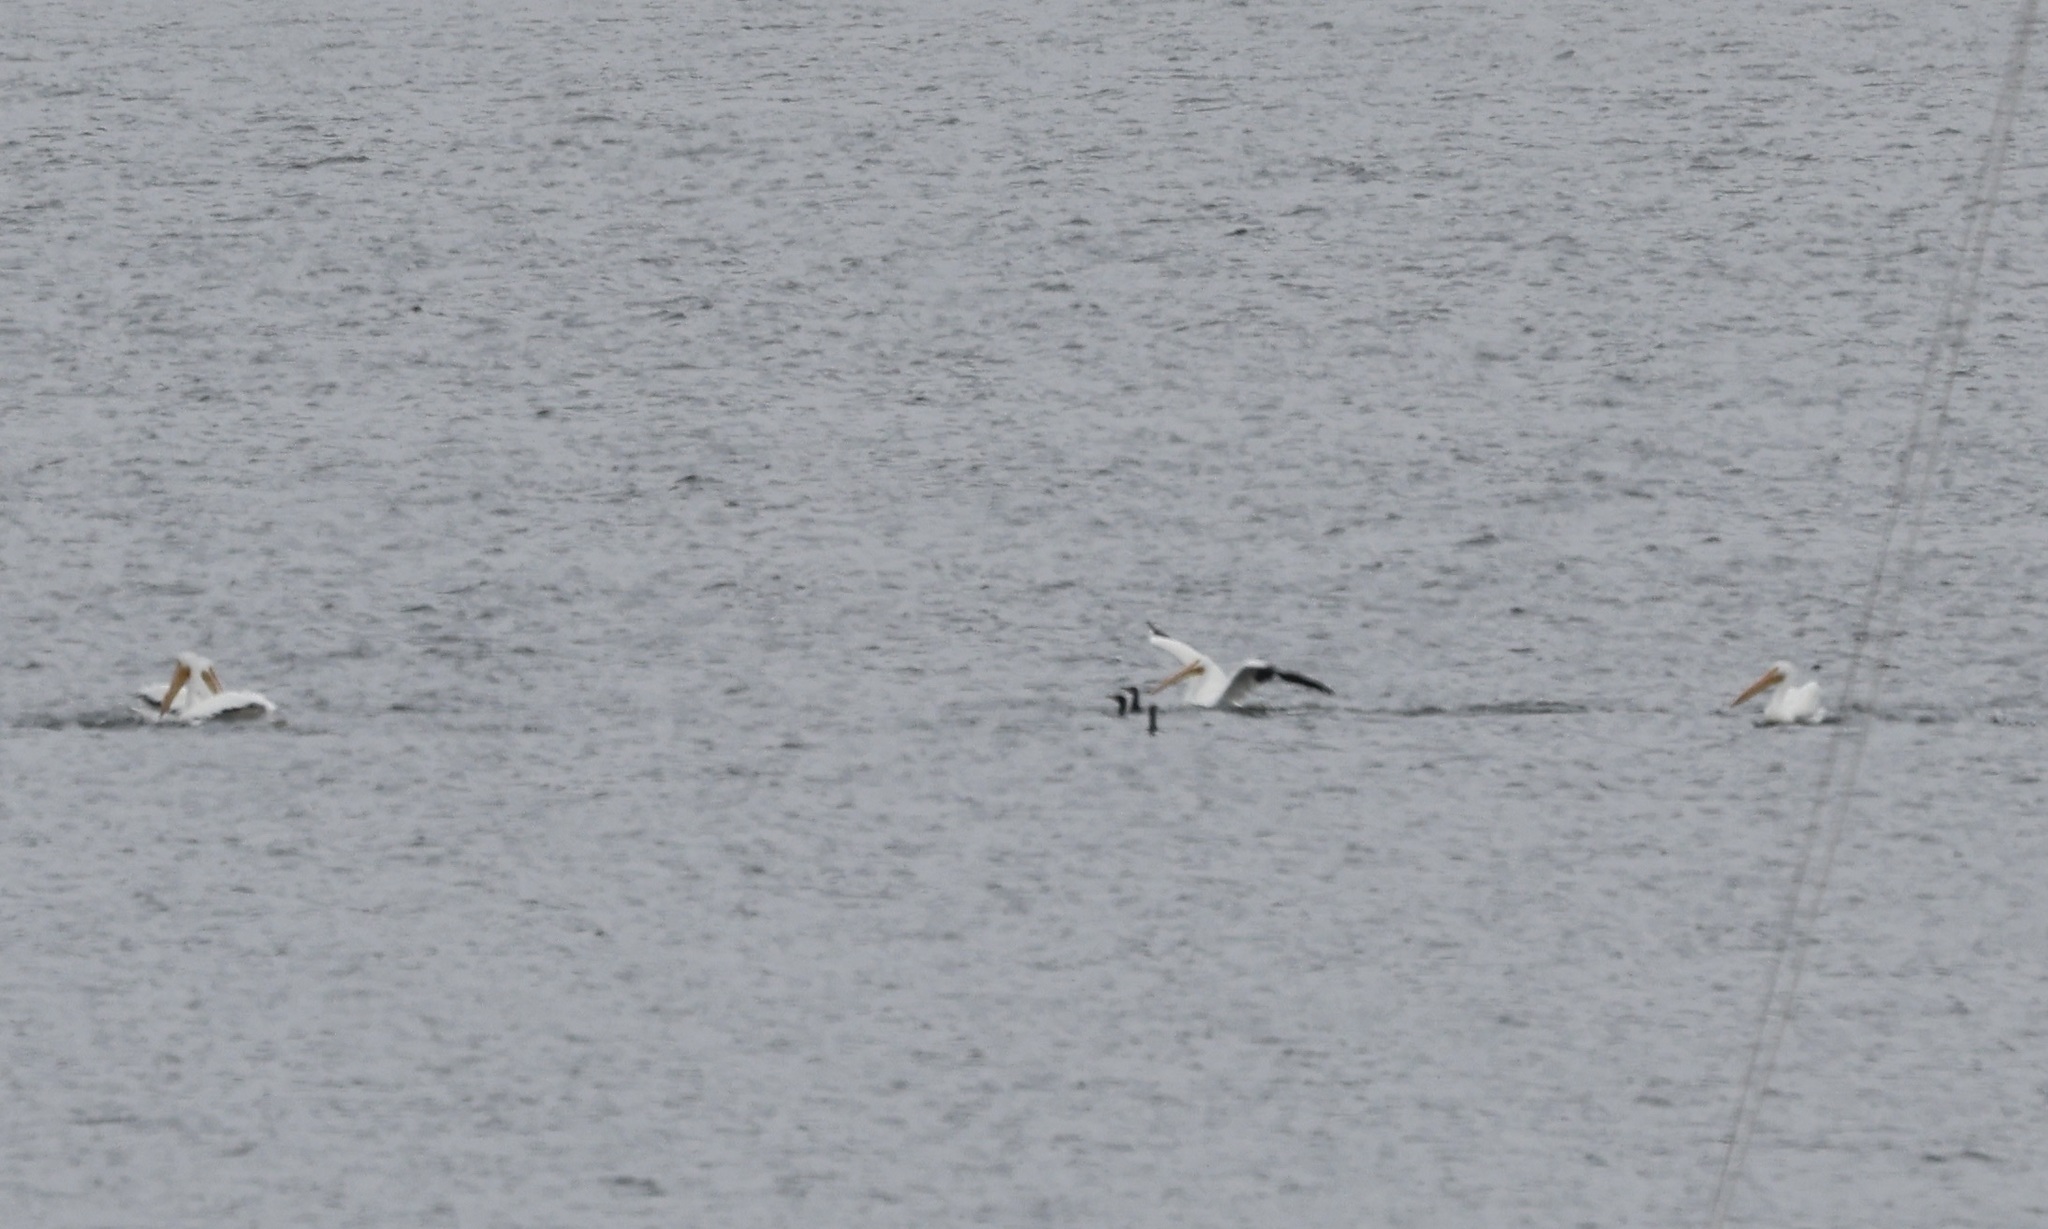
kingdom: Animalia
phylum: Chordata
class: Aves
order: Pelecaniformes
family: Pelecanidae
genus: Pelecanus
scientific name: Pelecanus erythrorhynchos
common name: American white pelican
